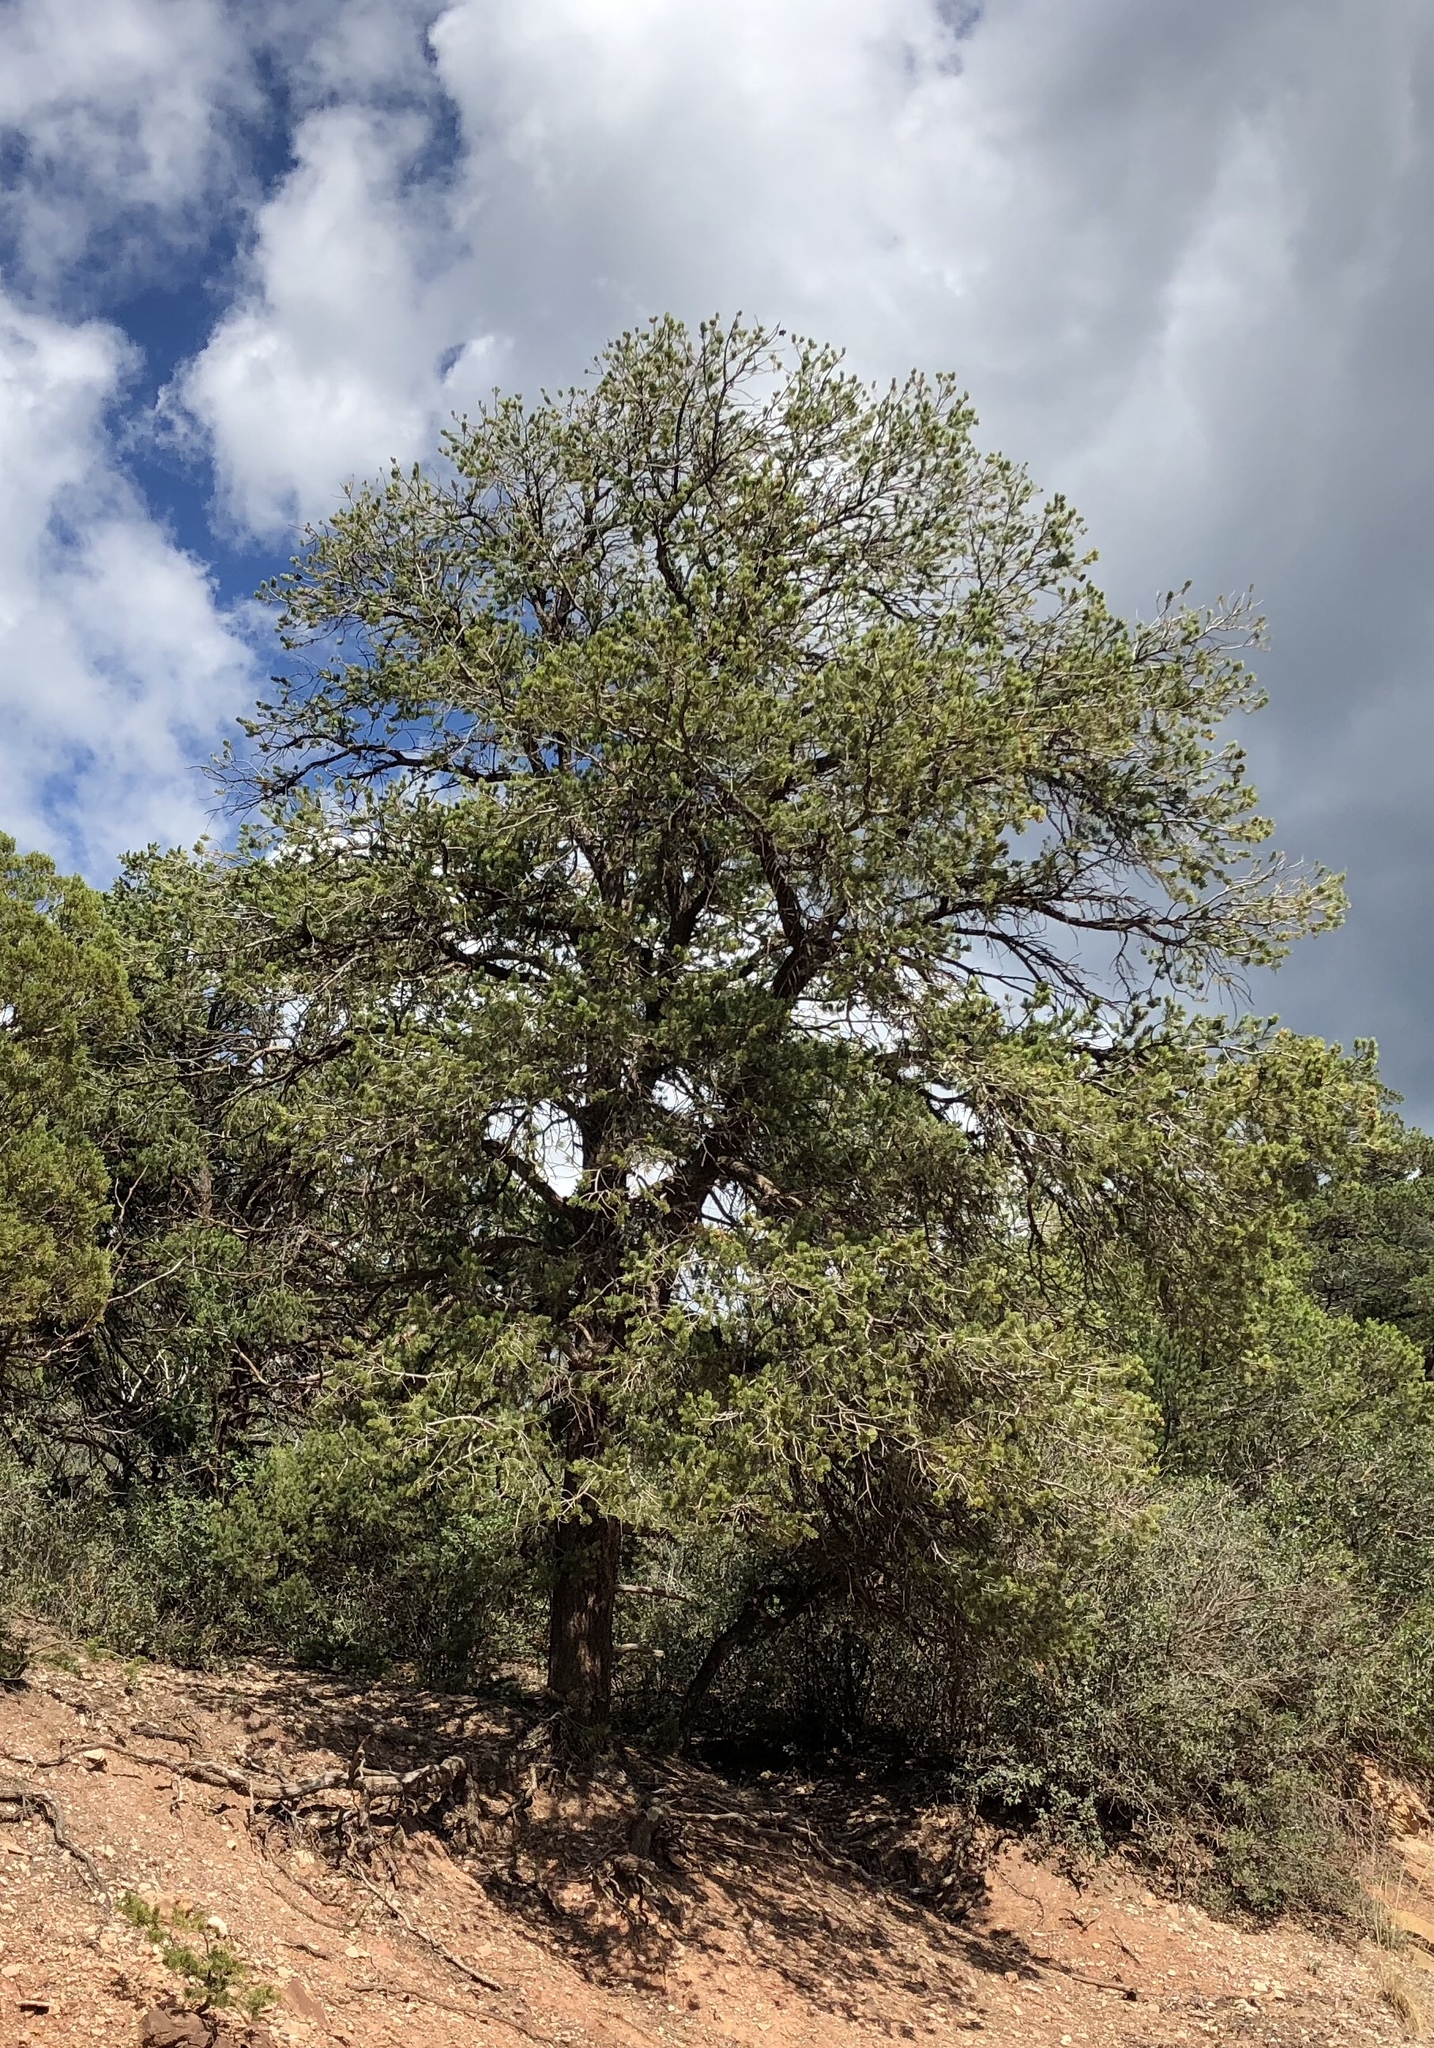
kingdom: Plantae
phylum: Tracheophyta
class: Pinopsida
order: Pinales
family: Pinaceae
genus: Pinus
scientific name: Pinus edulis
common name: Colorado pinyon
